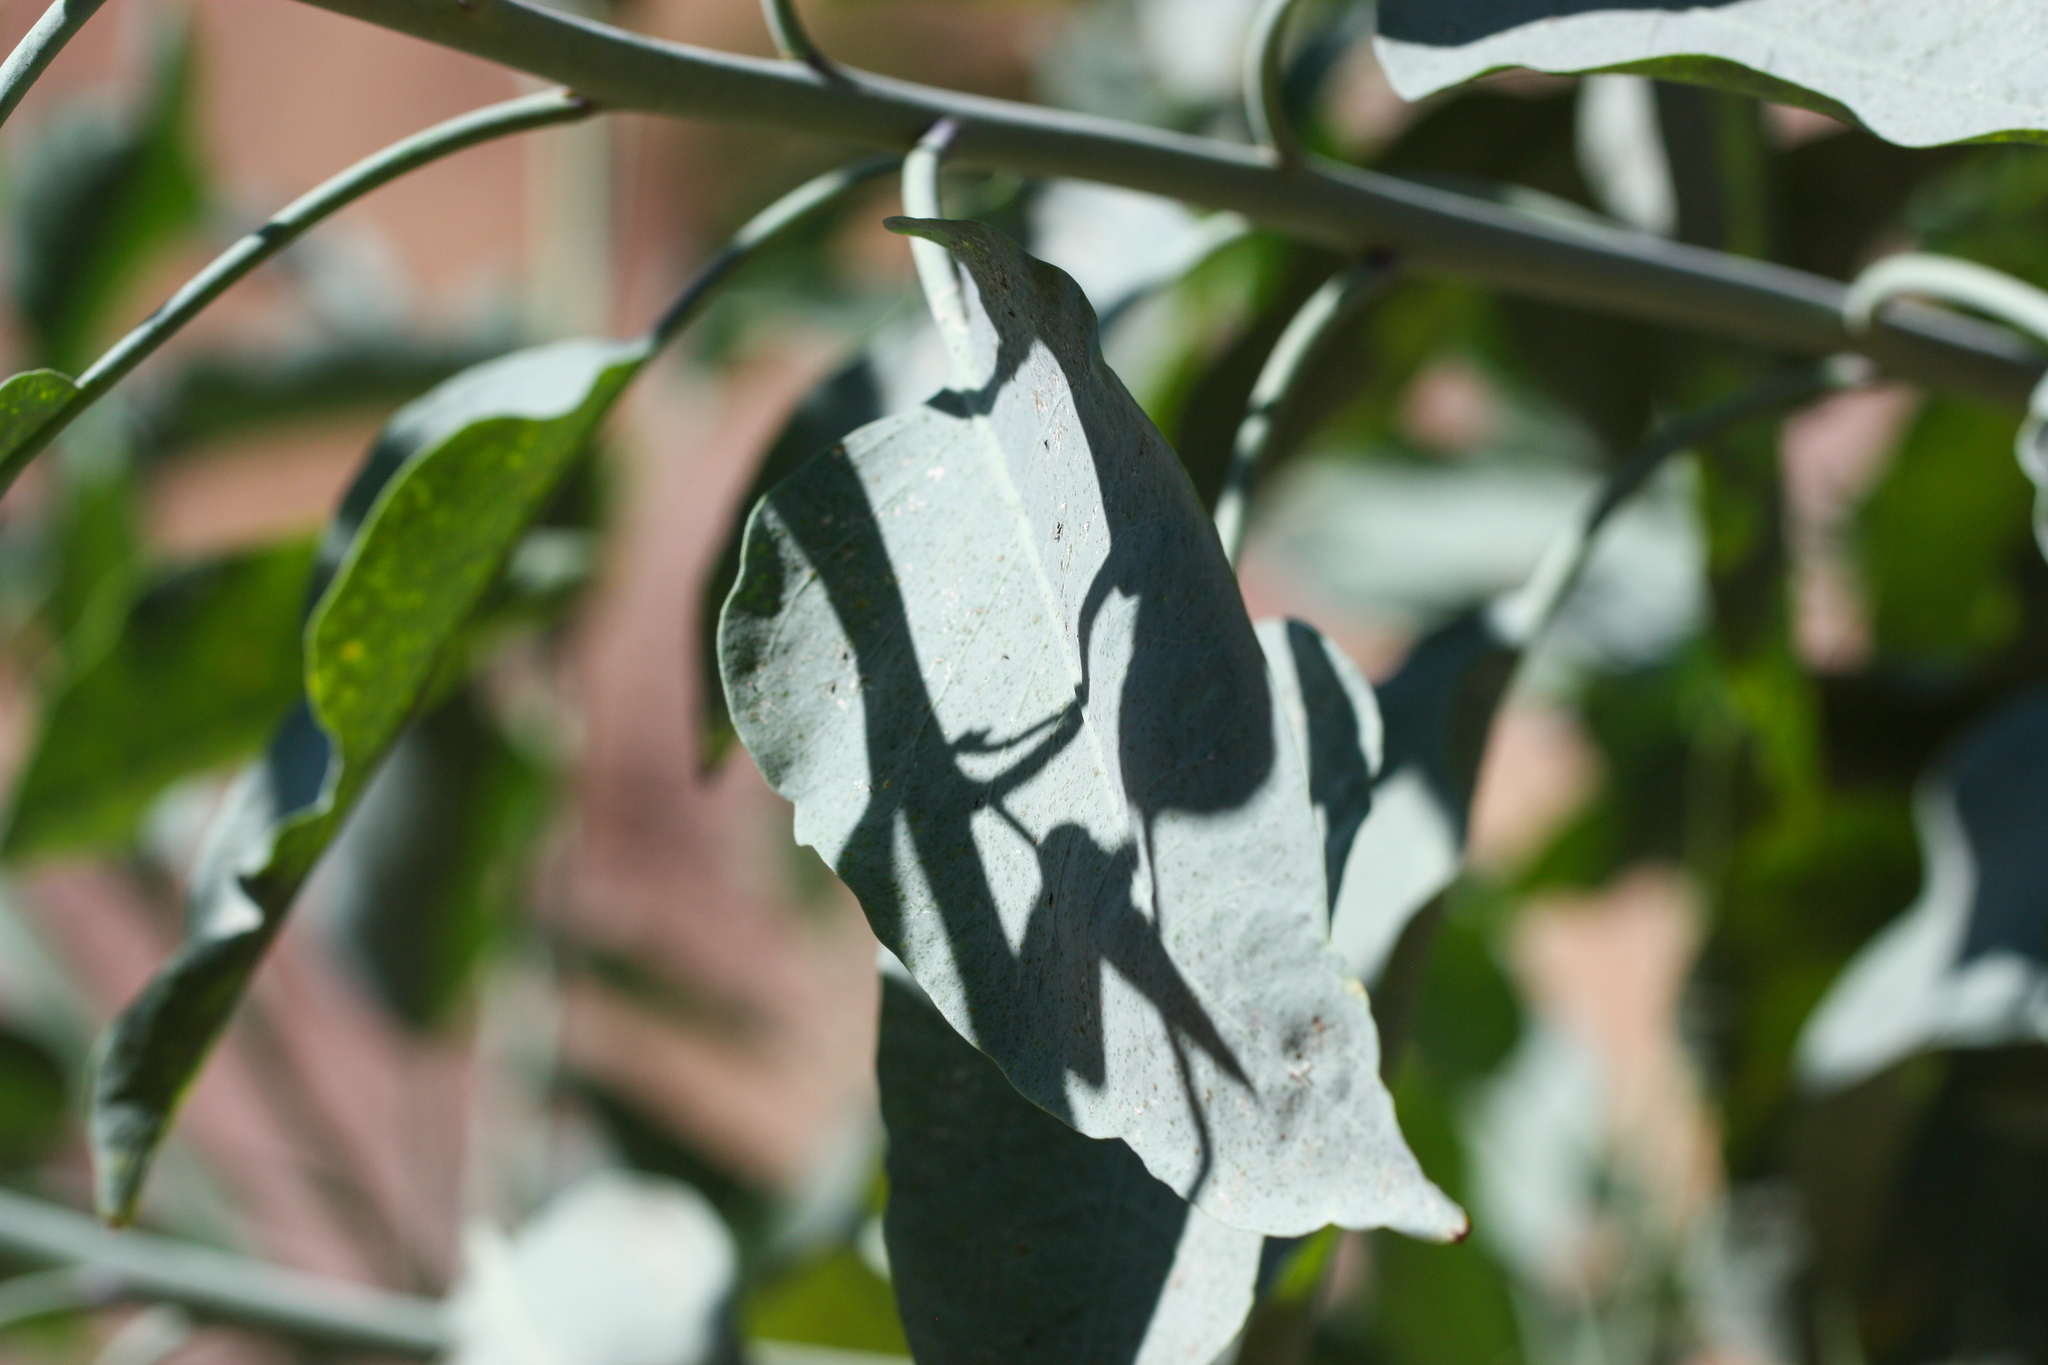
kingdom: Plantae
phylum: Tracheophyta
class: Magnoliopsida
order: Solanales
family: Solanaceae
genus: Nicotiana
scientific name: Nicotiana glauca
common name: Tree tobacco
